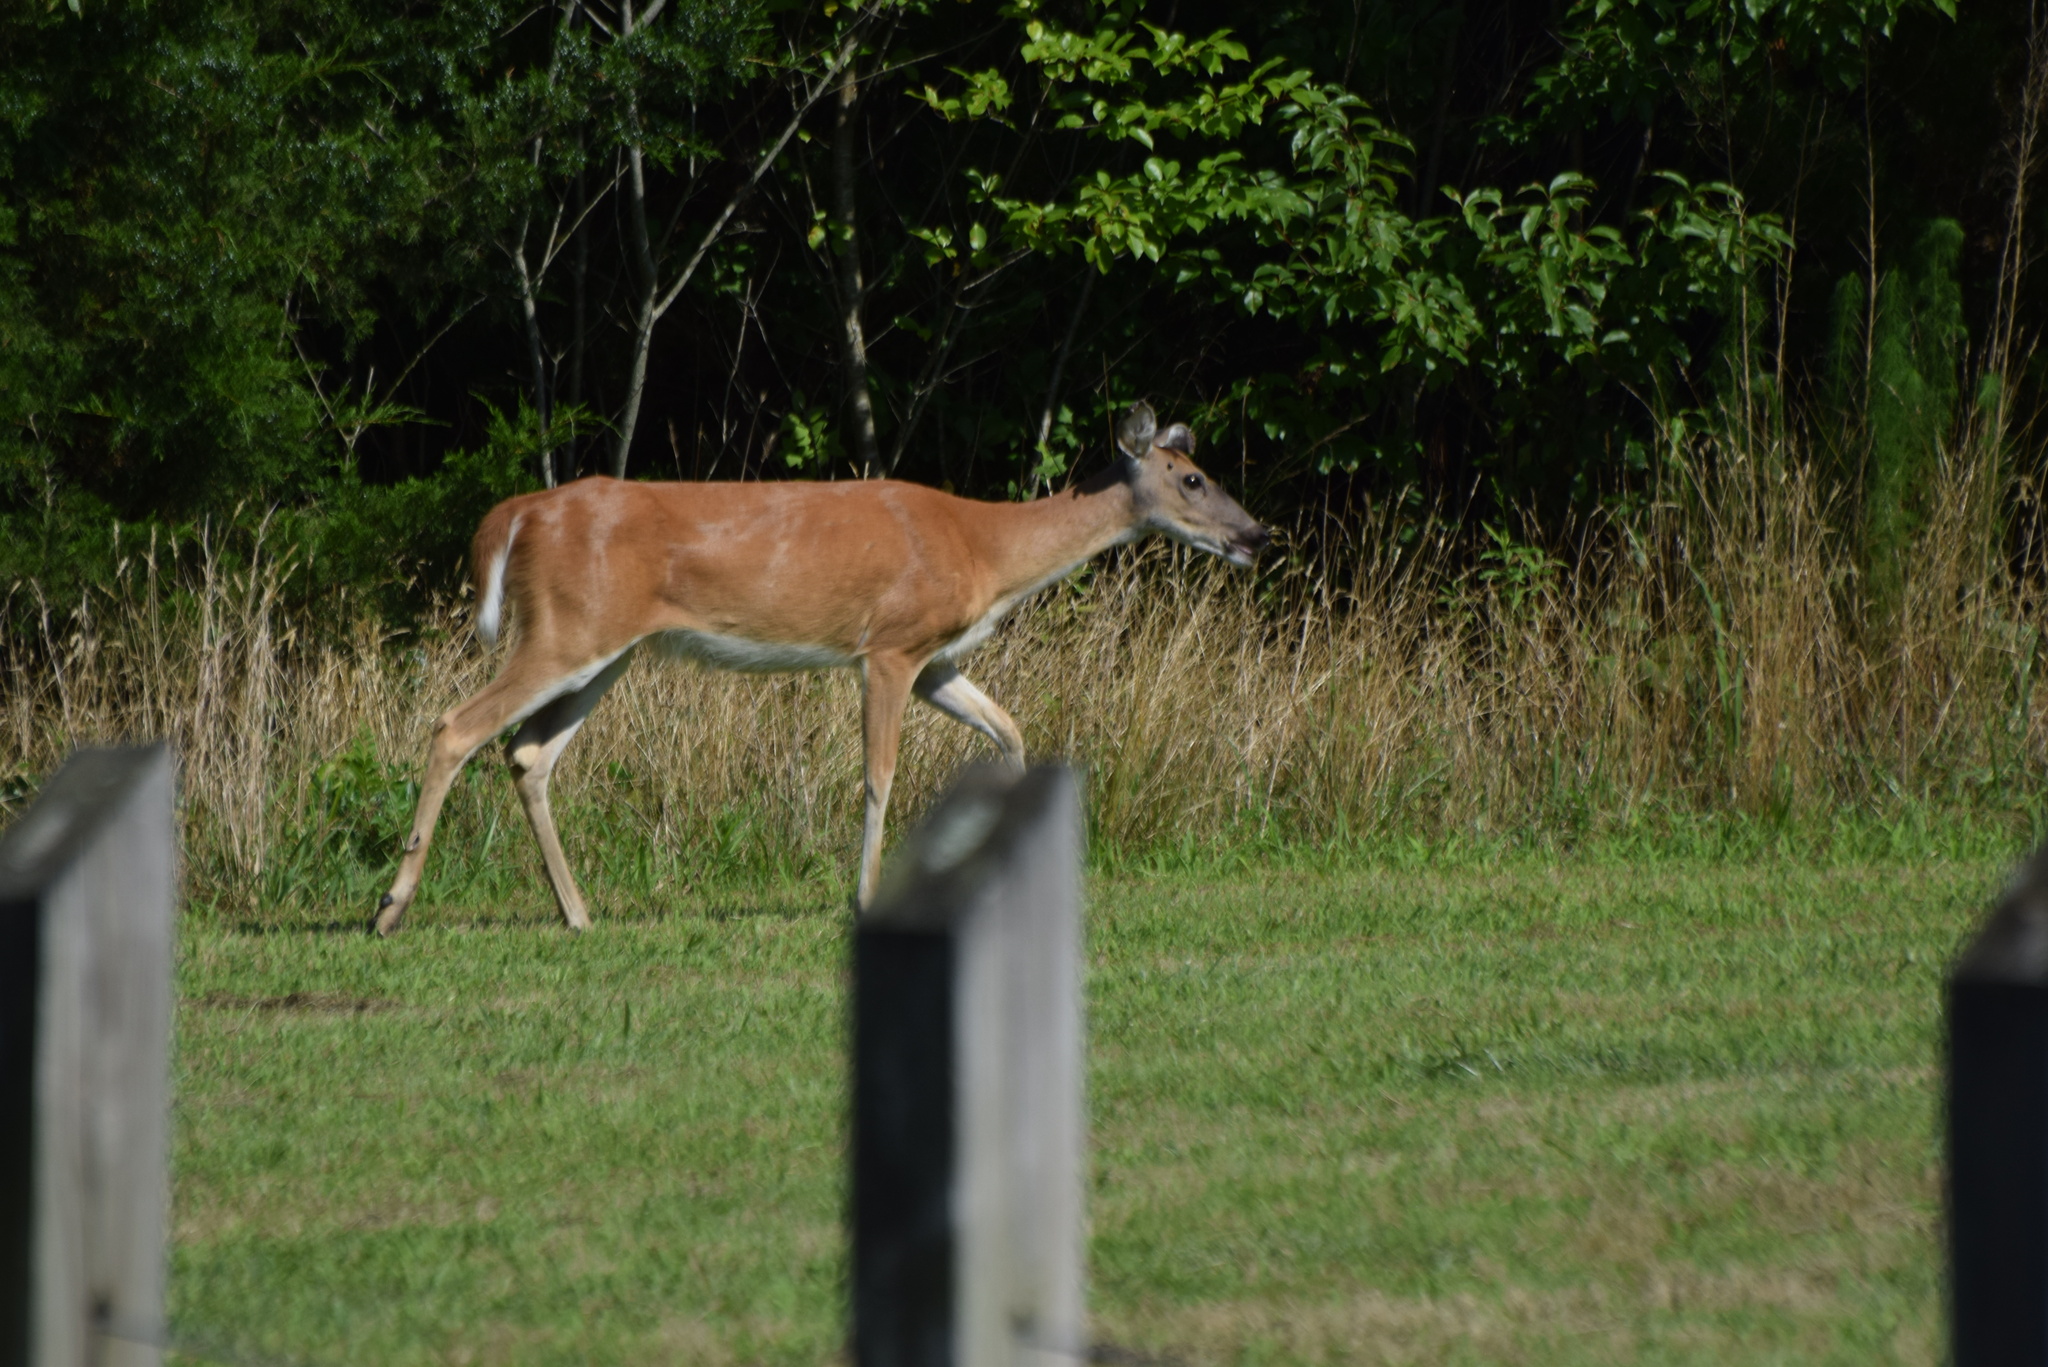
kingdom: Animalia
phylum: Chordata
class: Mammalia
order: Artiodactyla
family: Cervidae
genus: Odocoileus
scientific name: Odocoileus virginianus
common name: White-tailed deer
